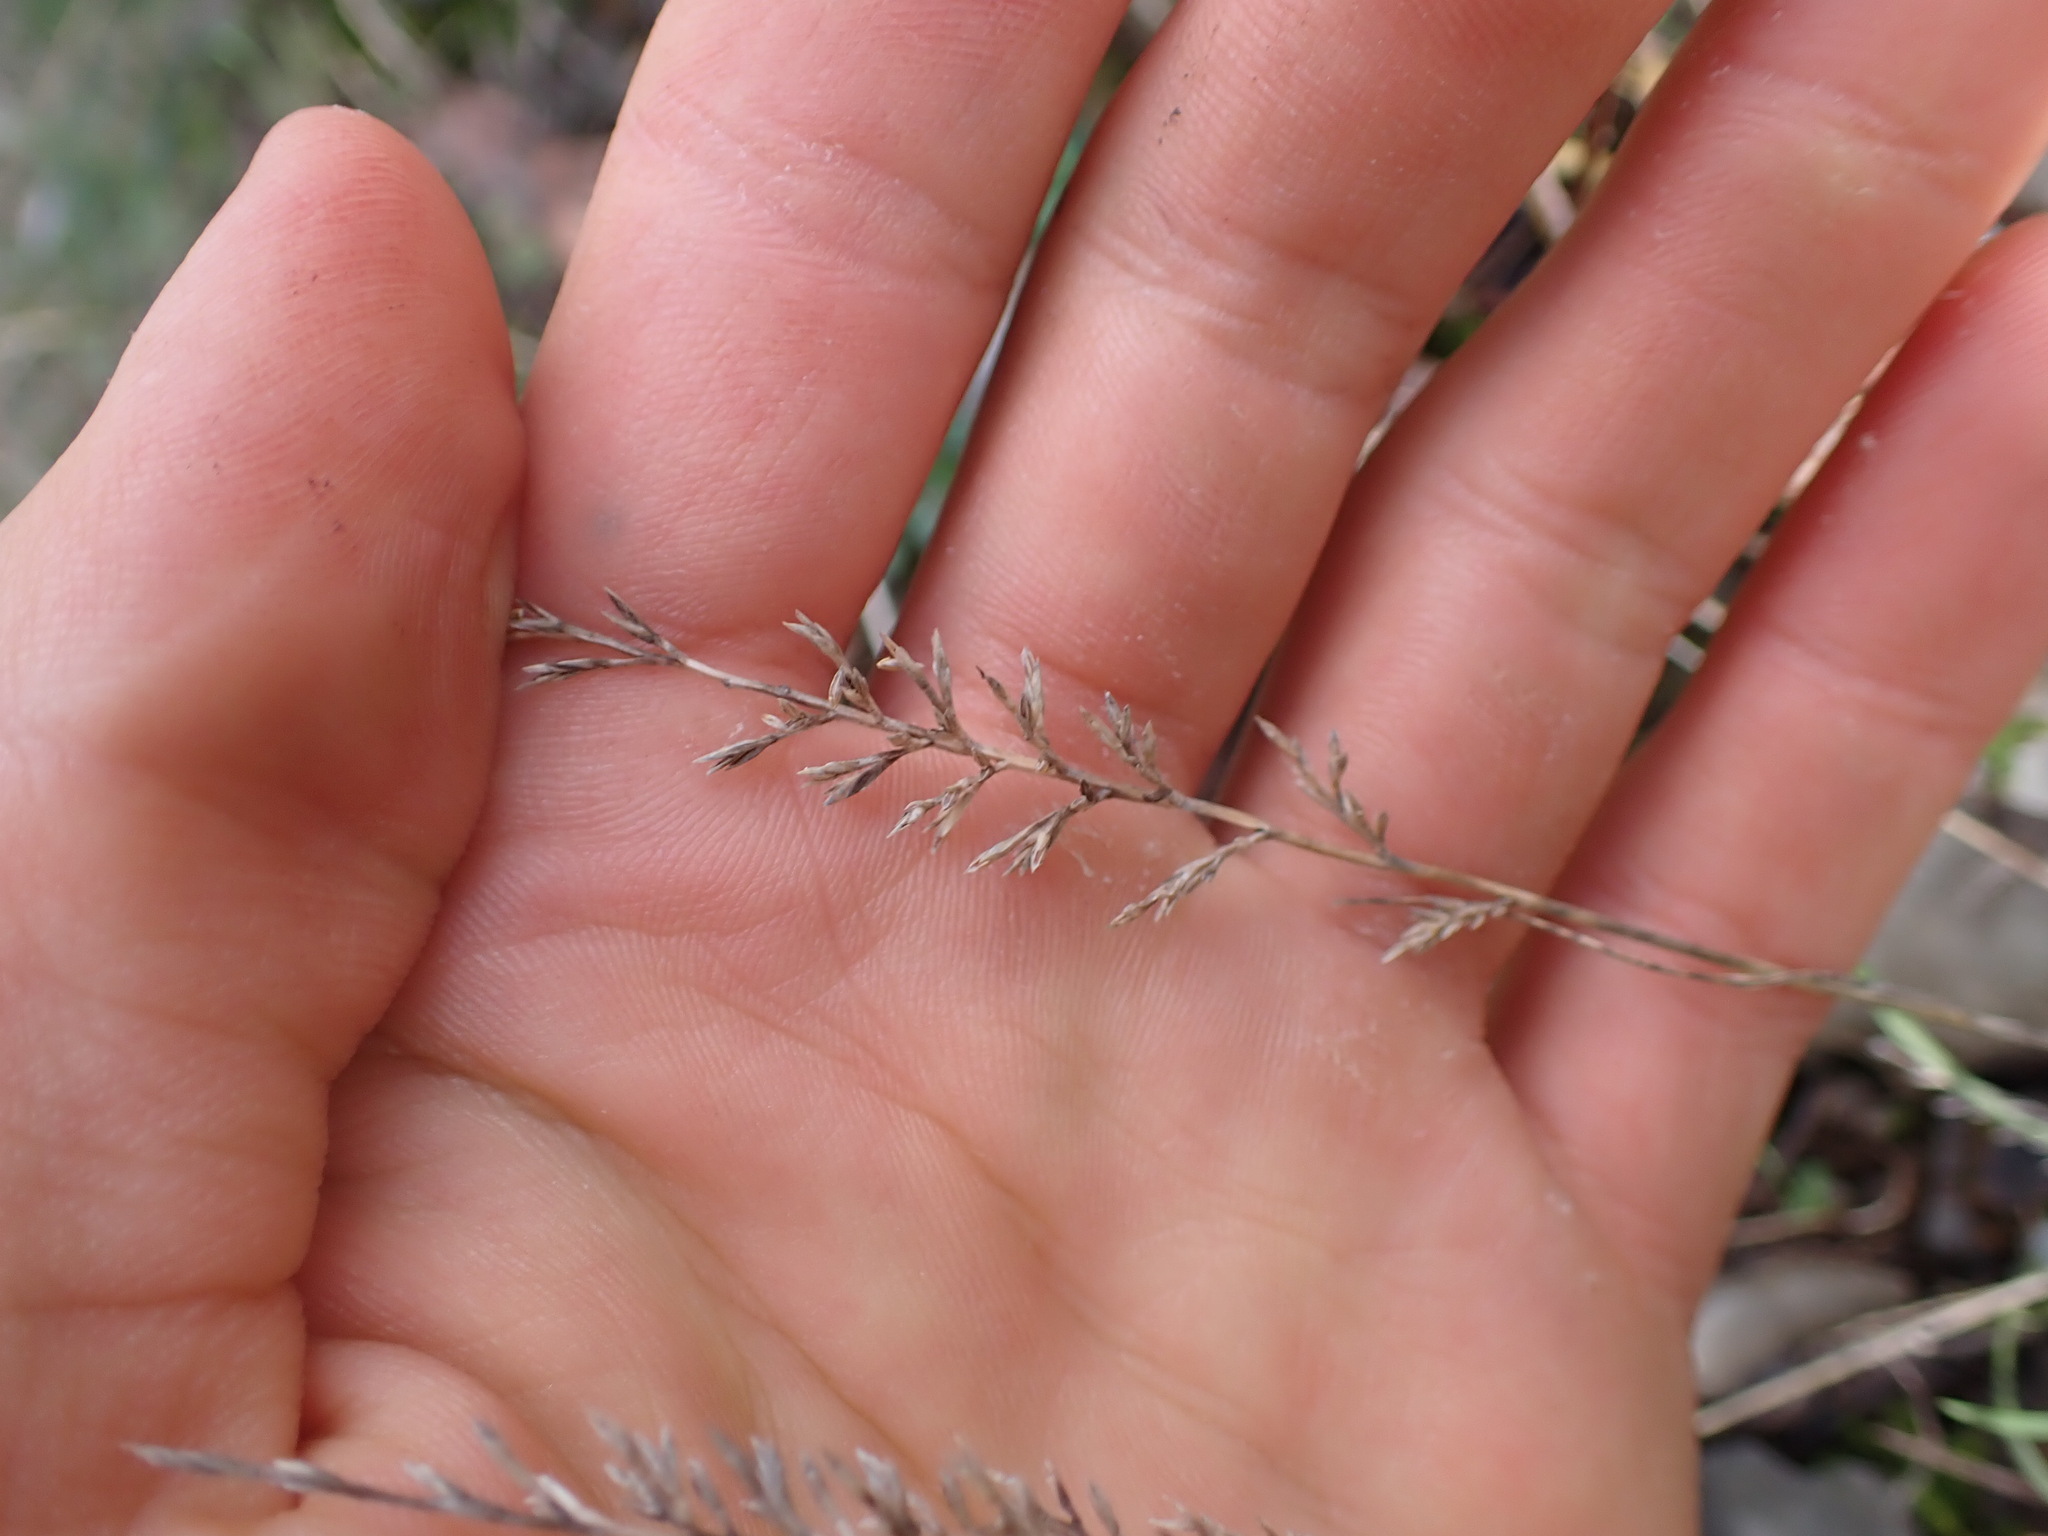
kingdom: Plantae
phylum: Tracheophyta
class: Liliopsida
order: Poales
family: Poaceae
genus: Catapodium
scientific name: Catapodium rigidum
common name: Fern-grass
